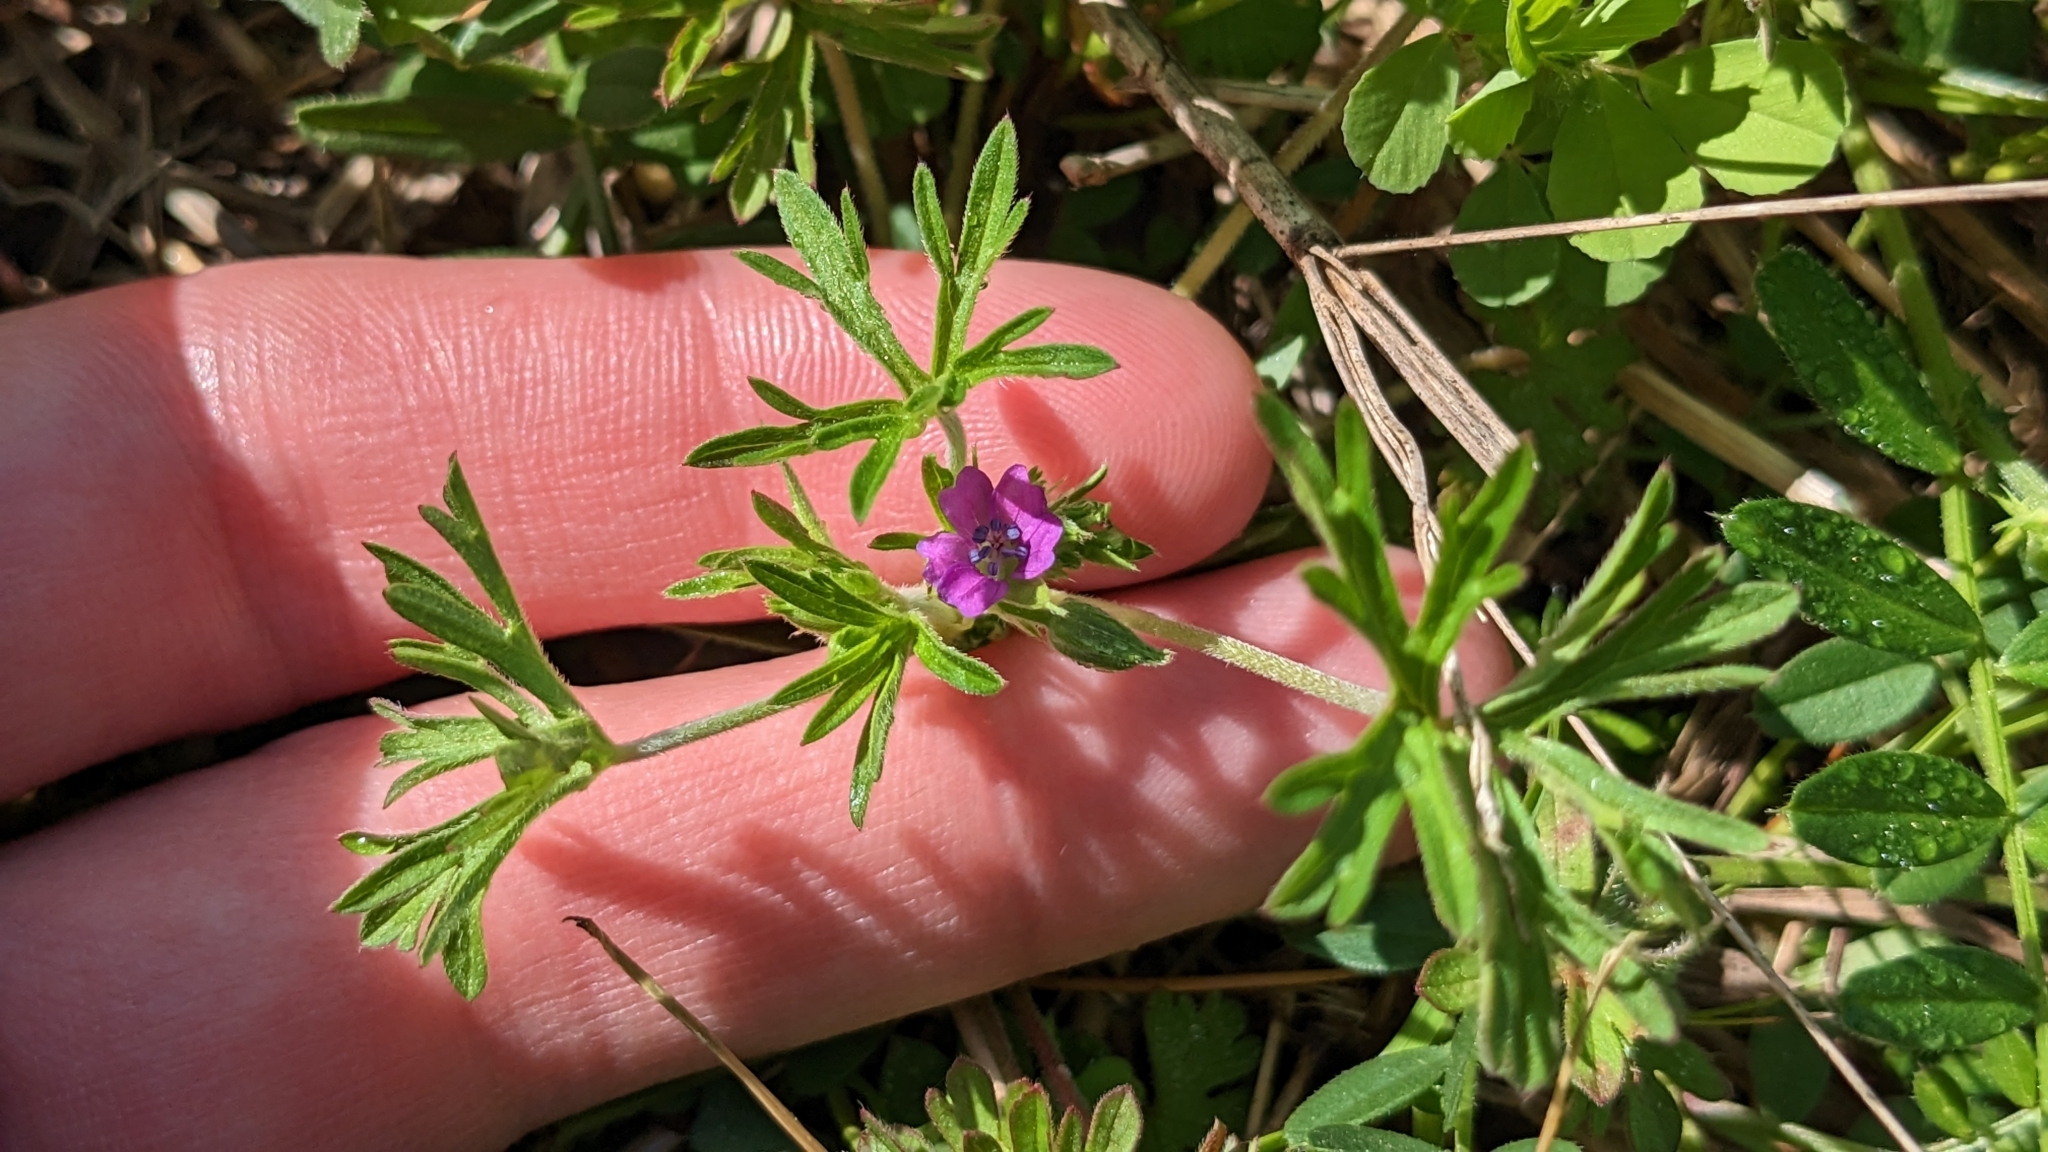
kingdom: Plantae
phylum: Tracheophyta
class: Magnoliopsida
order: Geraniales
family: Geraniaceae
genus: Geranium
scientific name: Geranium dissectum
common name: Cut-leaved crane's-bill
